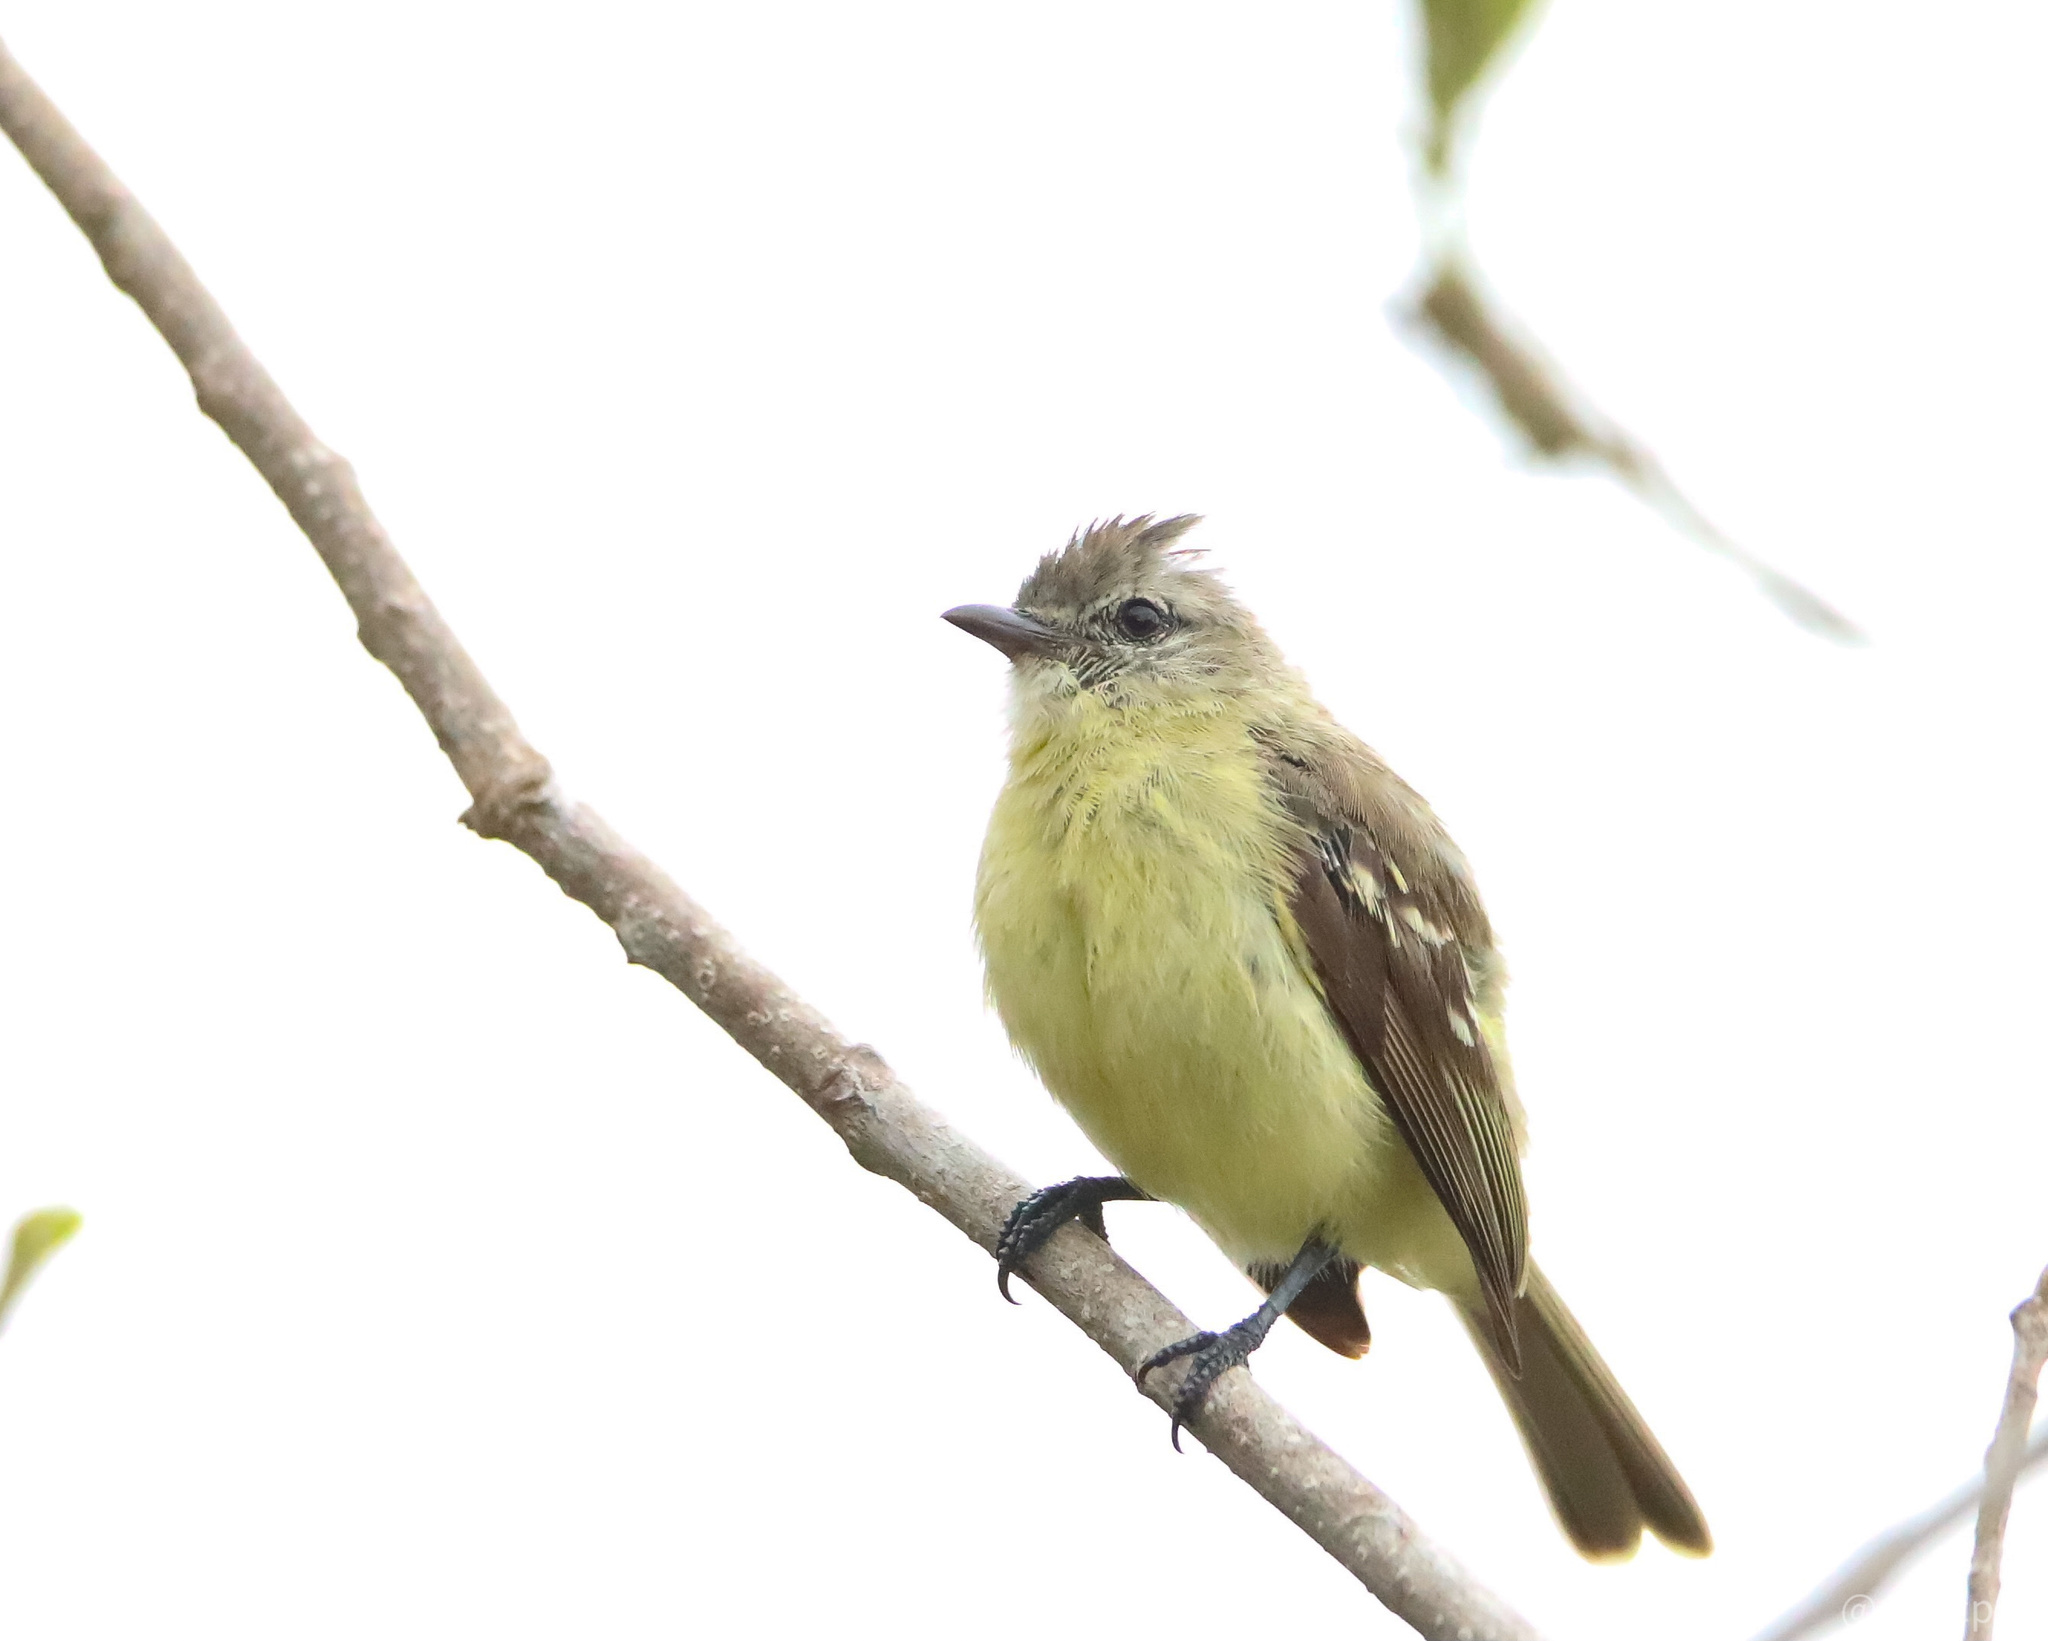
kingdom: Animalia
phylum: Chordata
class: Aves
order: Passeriformes
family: Tyrannidae
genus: Camptostoma
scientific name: Camptostoma obsoletum
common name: Southern beardless-tyrannulet
